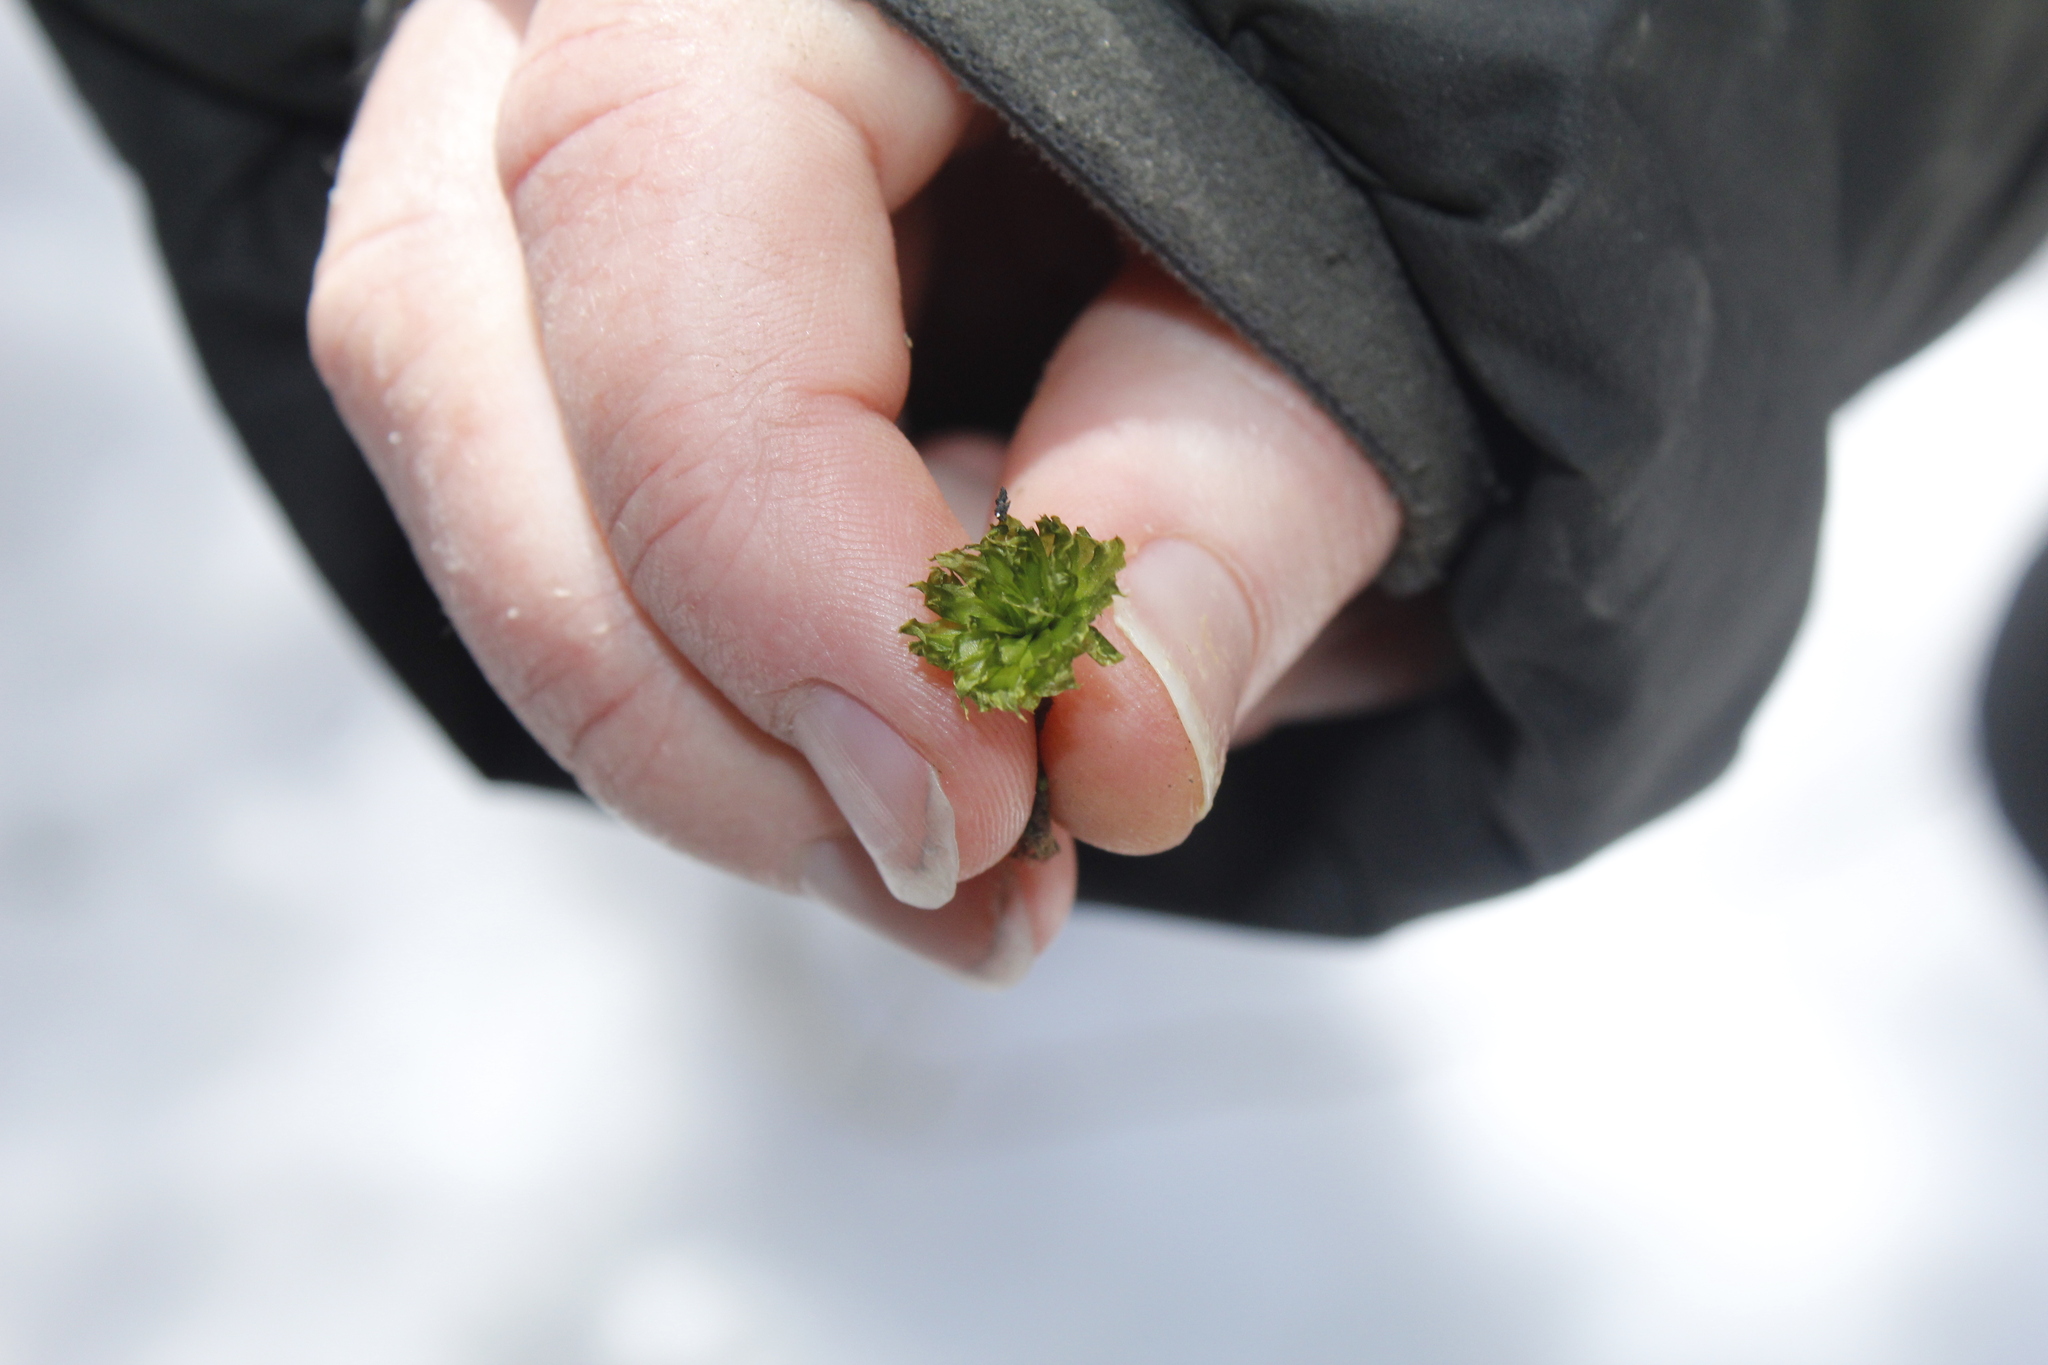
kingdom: Plantae
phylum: Bryophyta
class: Bryopsida
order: Bryales
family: Bryaceae
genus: Rhodobryum
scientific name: Rhodobryum ontariense
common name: Ontario rhodobryum moss
